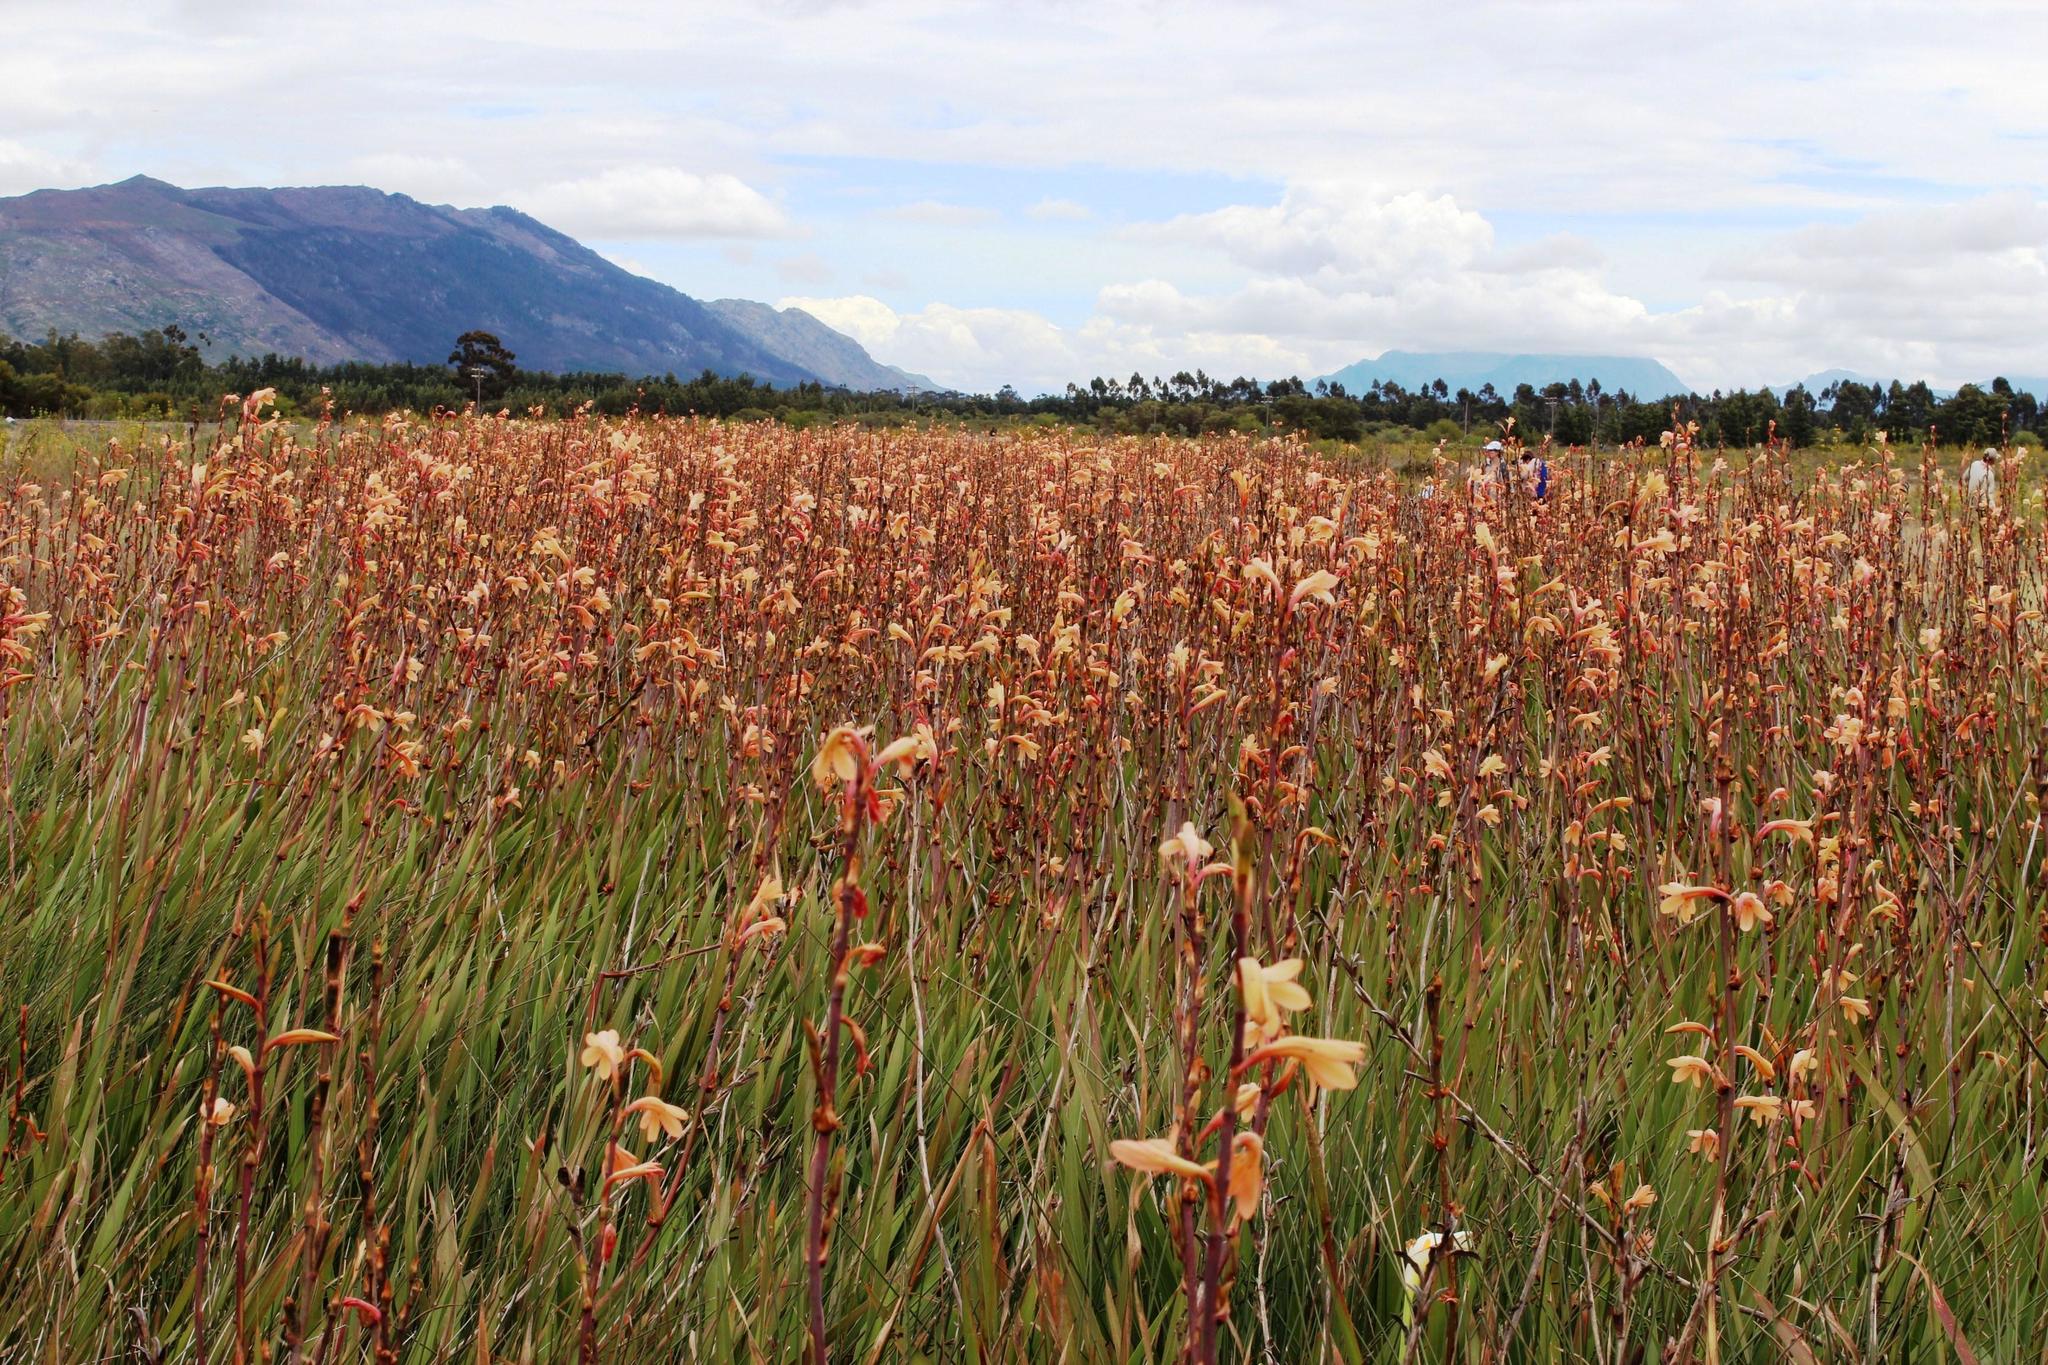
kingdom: Plantae
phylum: Tracheophyta
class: Liliopsida
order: Asparagales
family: Iridaceae
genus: Watsonia
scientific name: Watsonia meriana
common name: Bulbil bugle-lily
